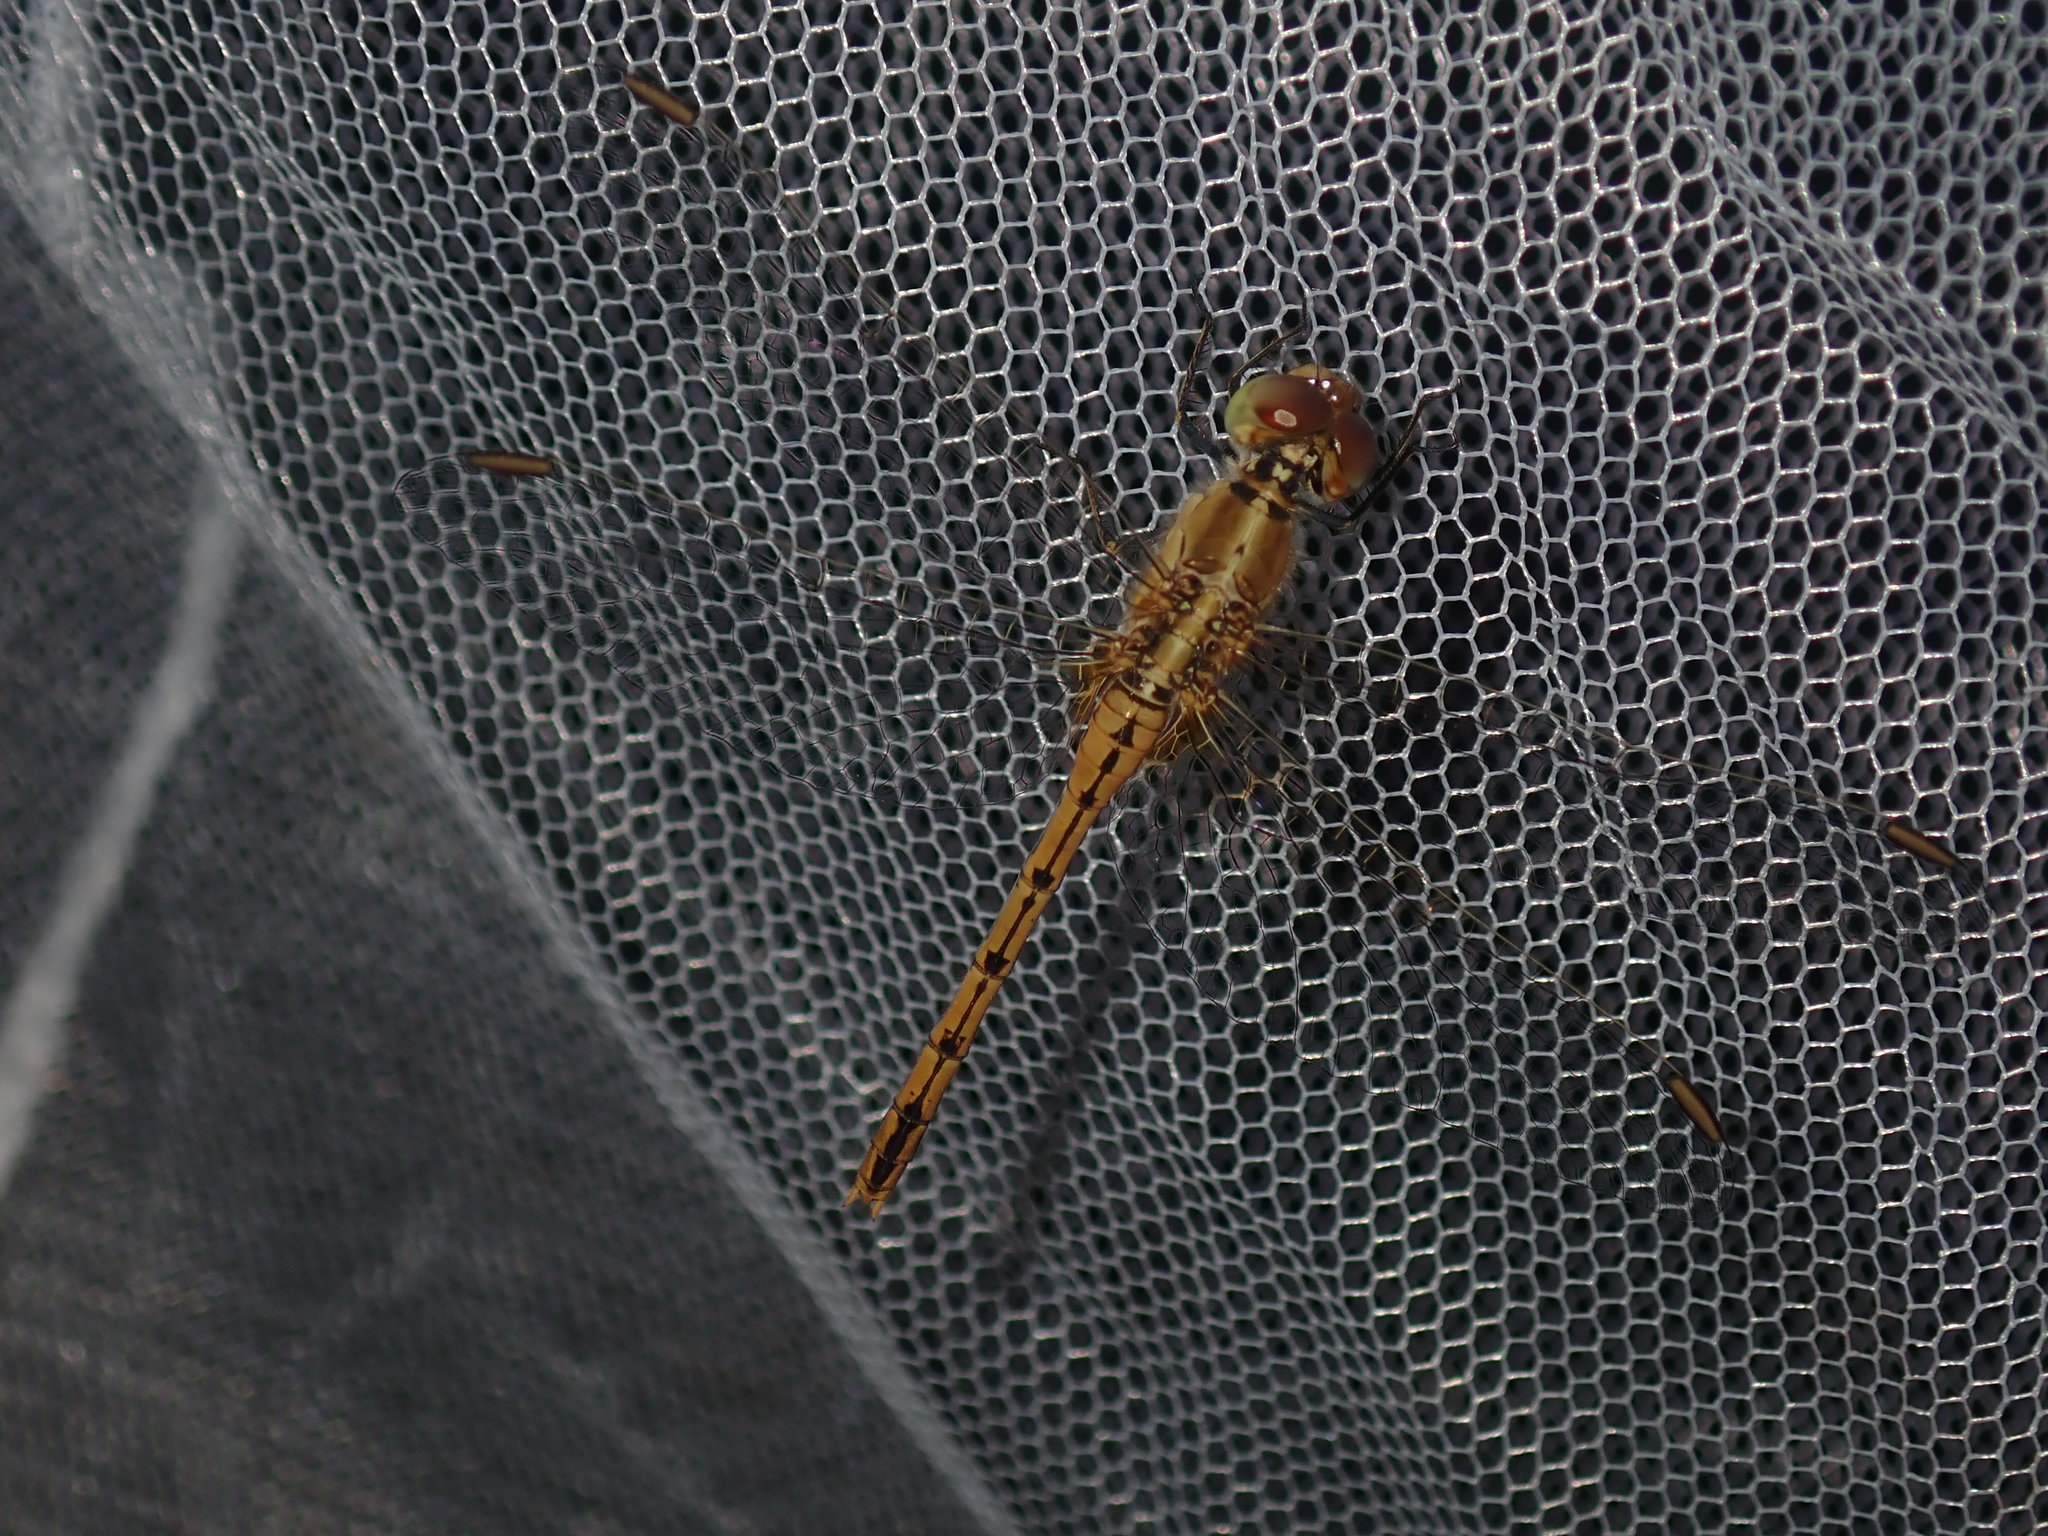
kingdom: Animalia
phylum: Arthropoda
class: Insecta
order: Odonata
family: Libellulidae
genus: Diplacodes
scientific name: Diplacodes bipunctata
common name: Red percher dragonfly
